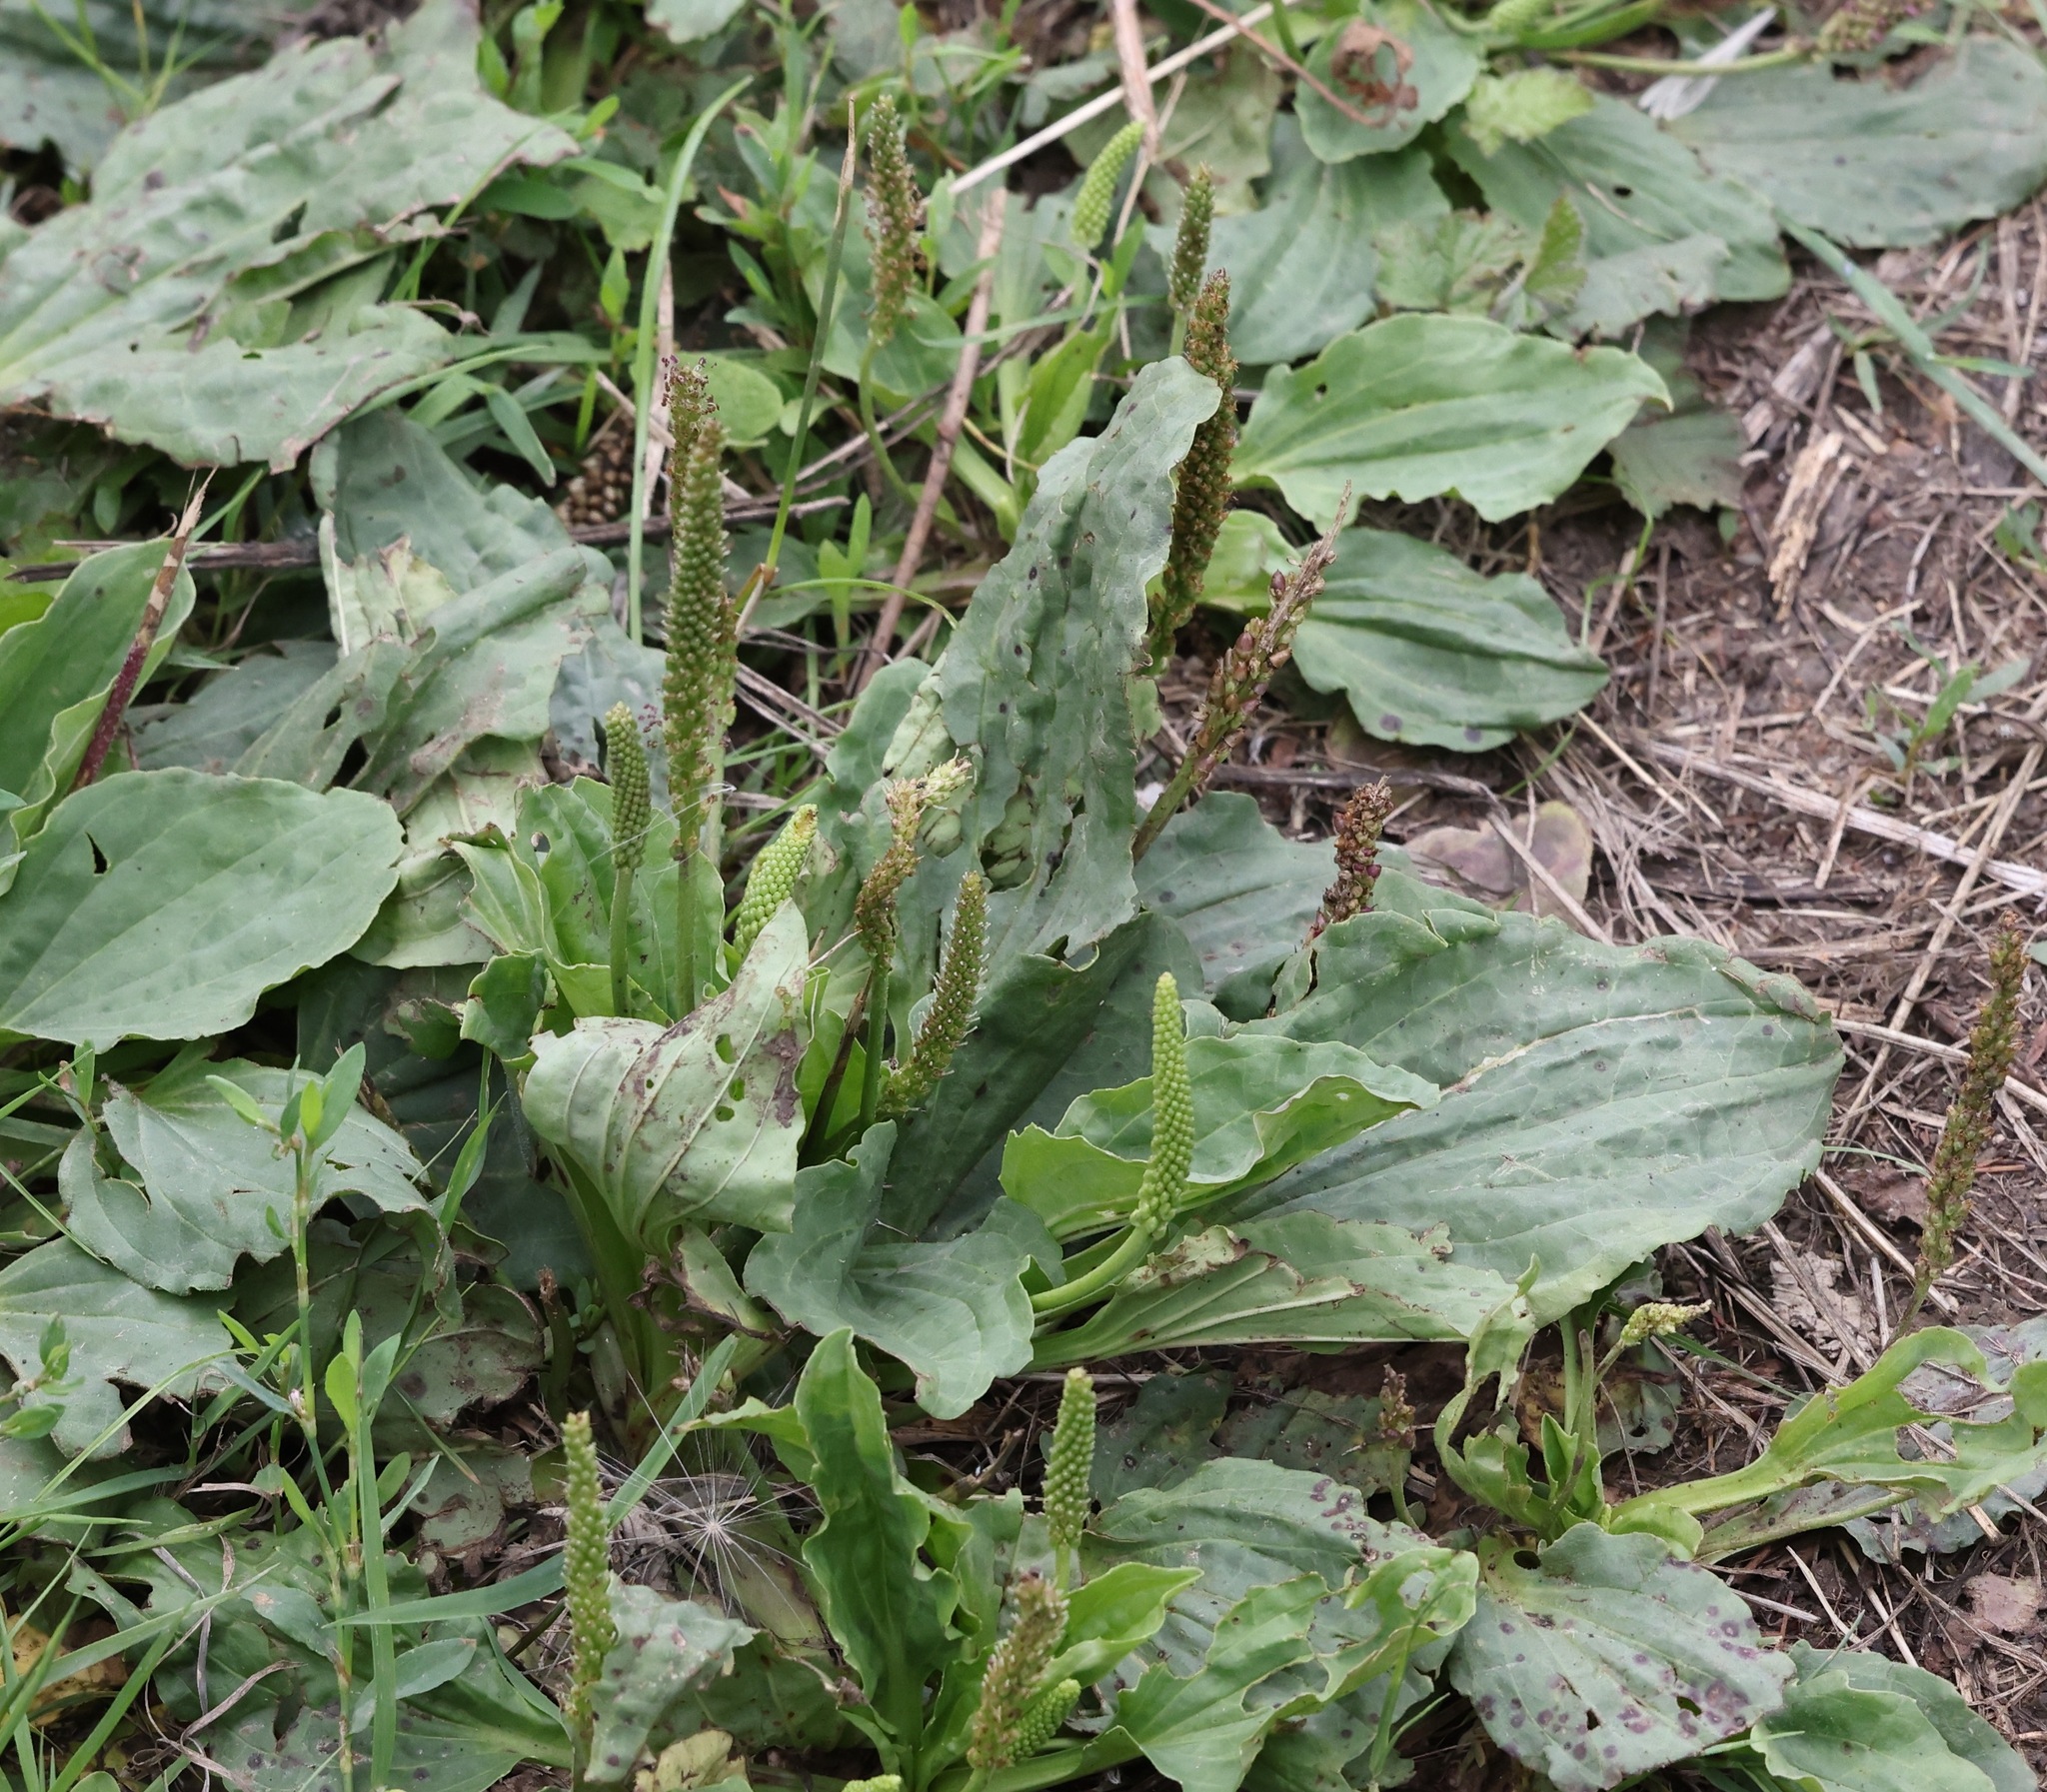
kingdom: Plantae
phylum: Tracheophyta
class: Magnoliopsida
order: Lamiales
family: Plantaginaceae
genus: Plantago
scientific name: Plantago major
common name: Common plantain
